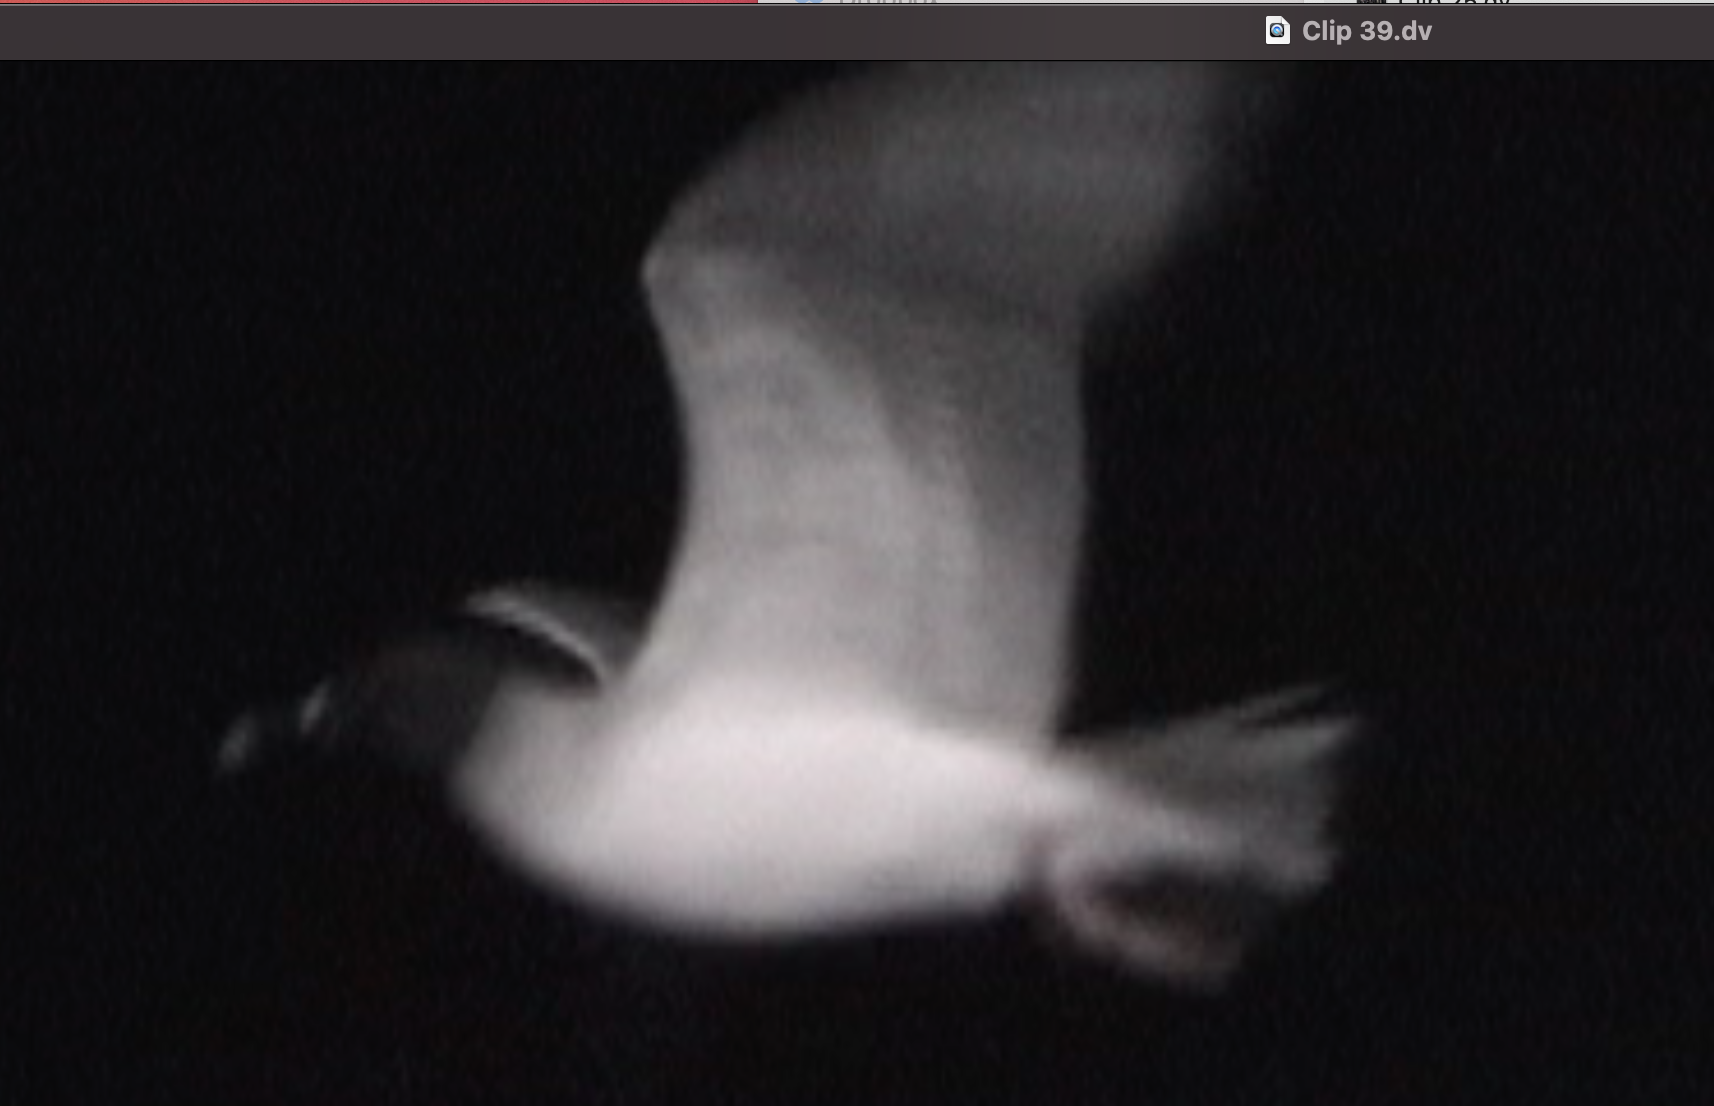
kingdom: Animalia
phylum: Chordata
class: Aves
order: Charadriiformes
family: Laridae
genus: Creagrus
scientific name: Creagrus furcatus
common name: Swallow-tailed gull
